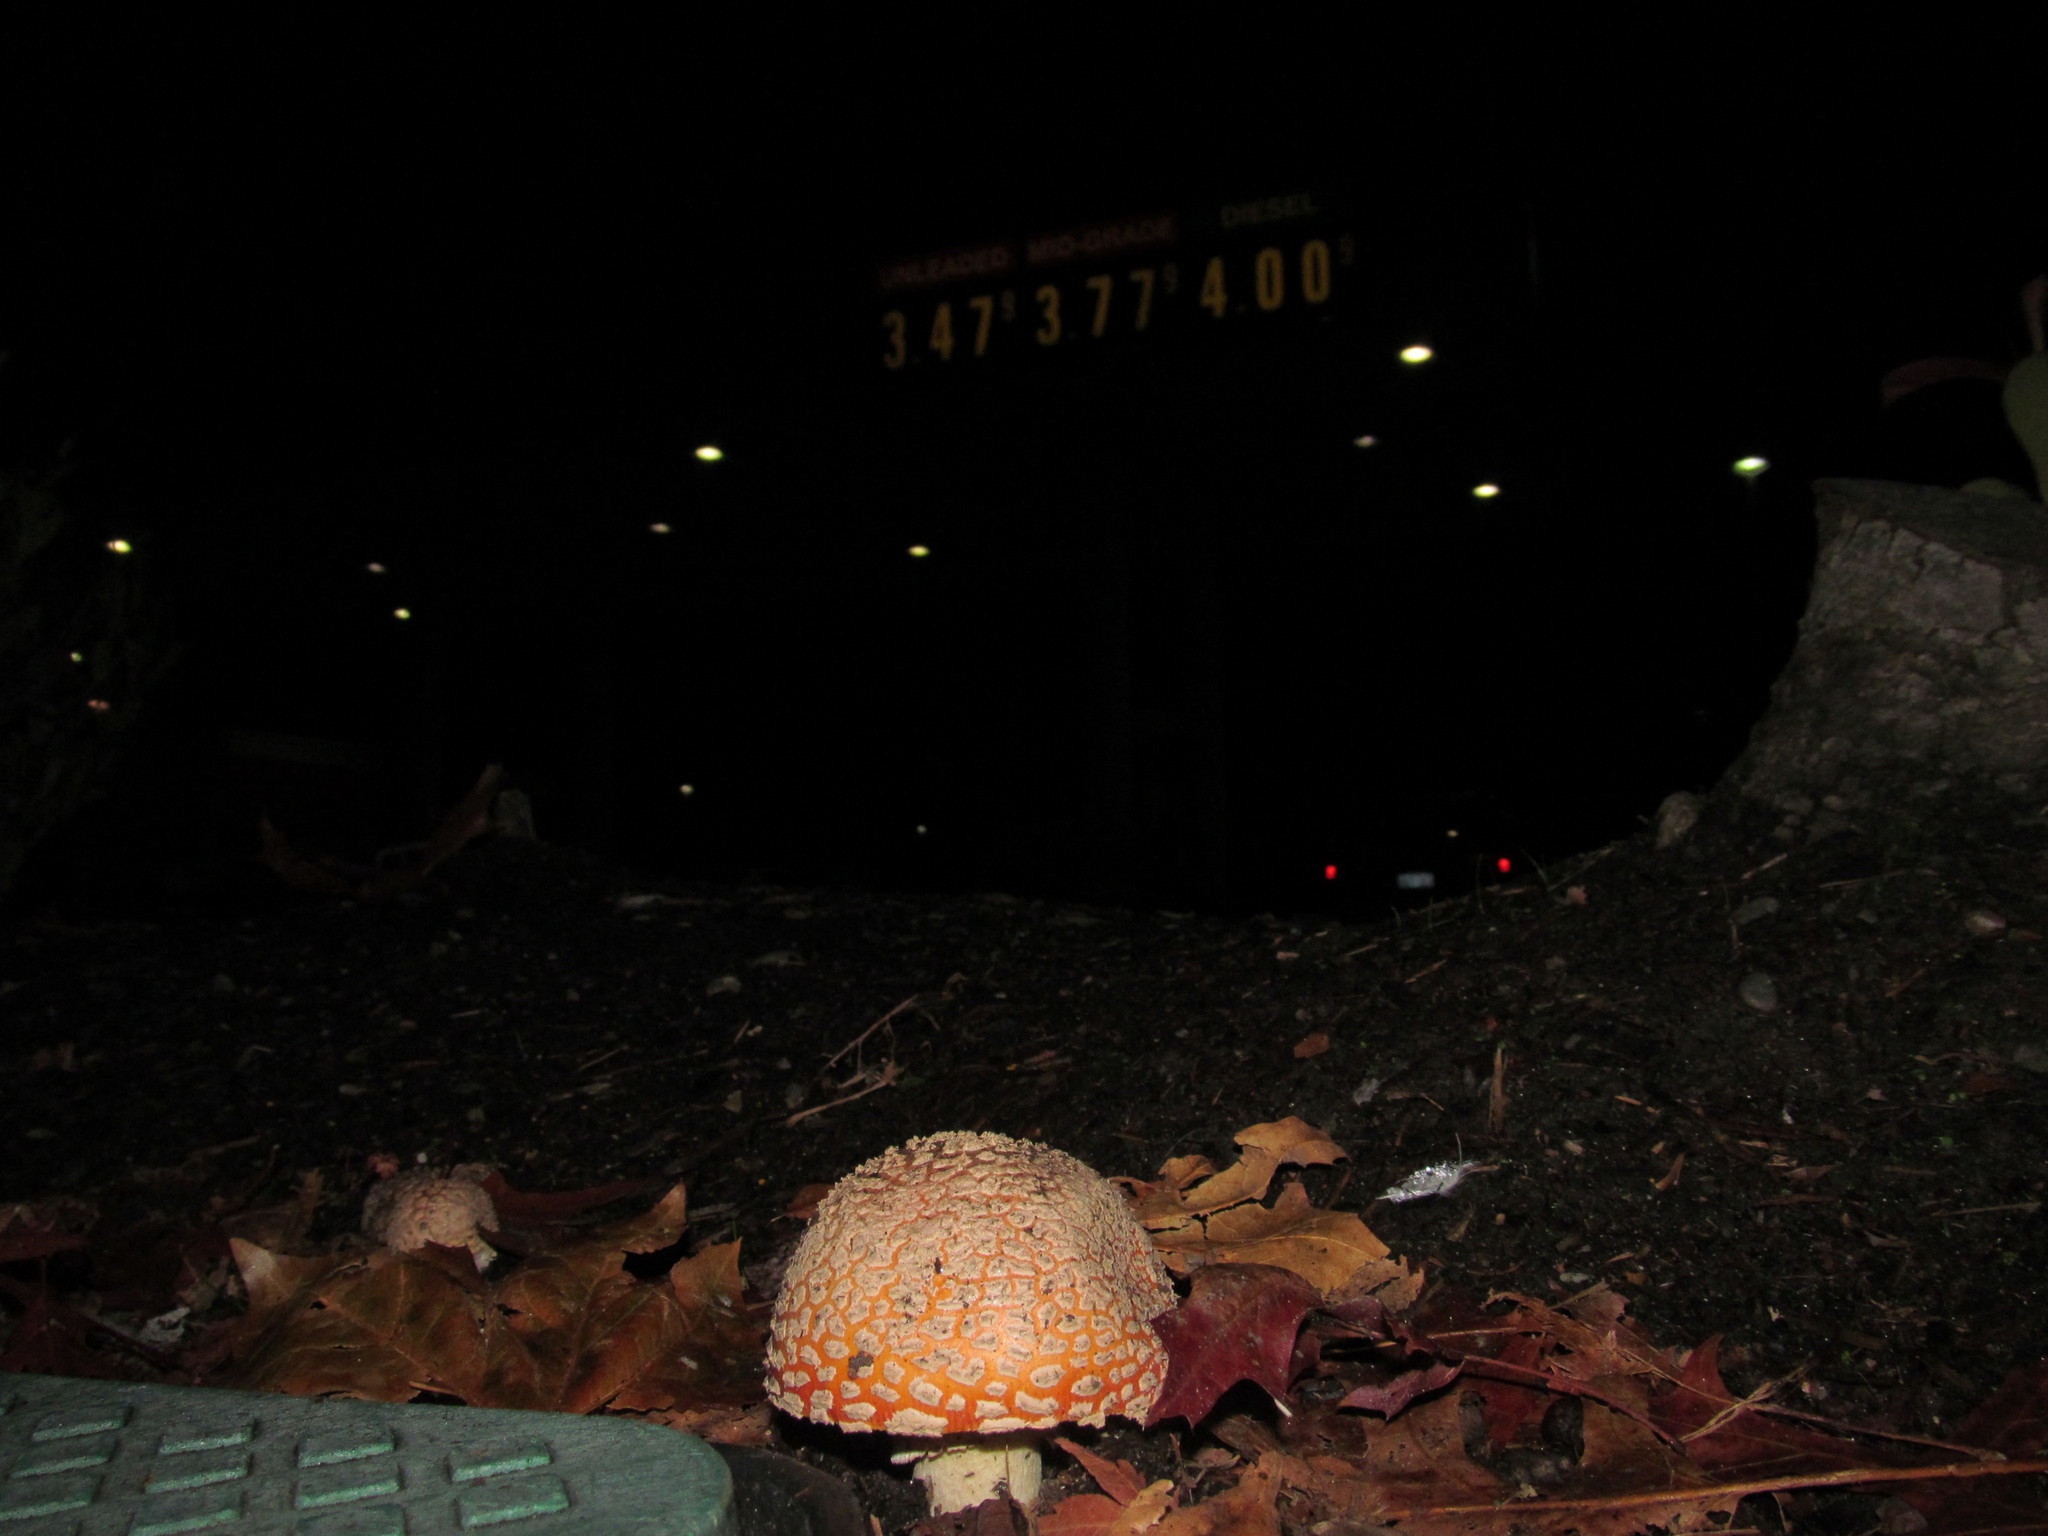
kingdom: Fungi
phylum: Basidiomycota
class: Agaricomycetes
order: Agaricales
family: Amanitaceae
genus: Amanita
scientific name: Amanita muscaria
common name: Fly agaric
